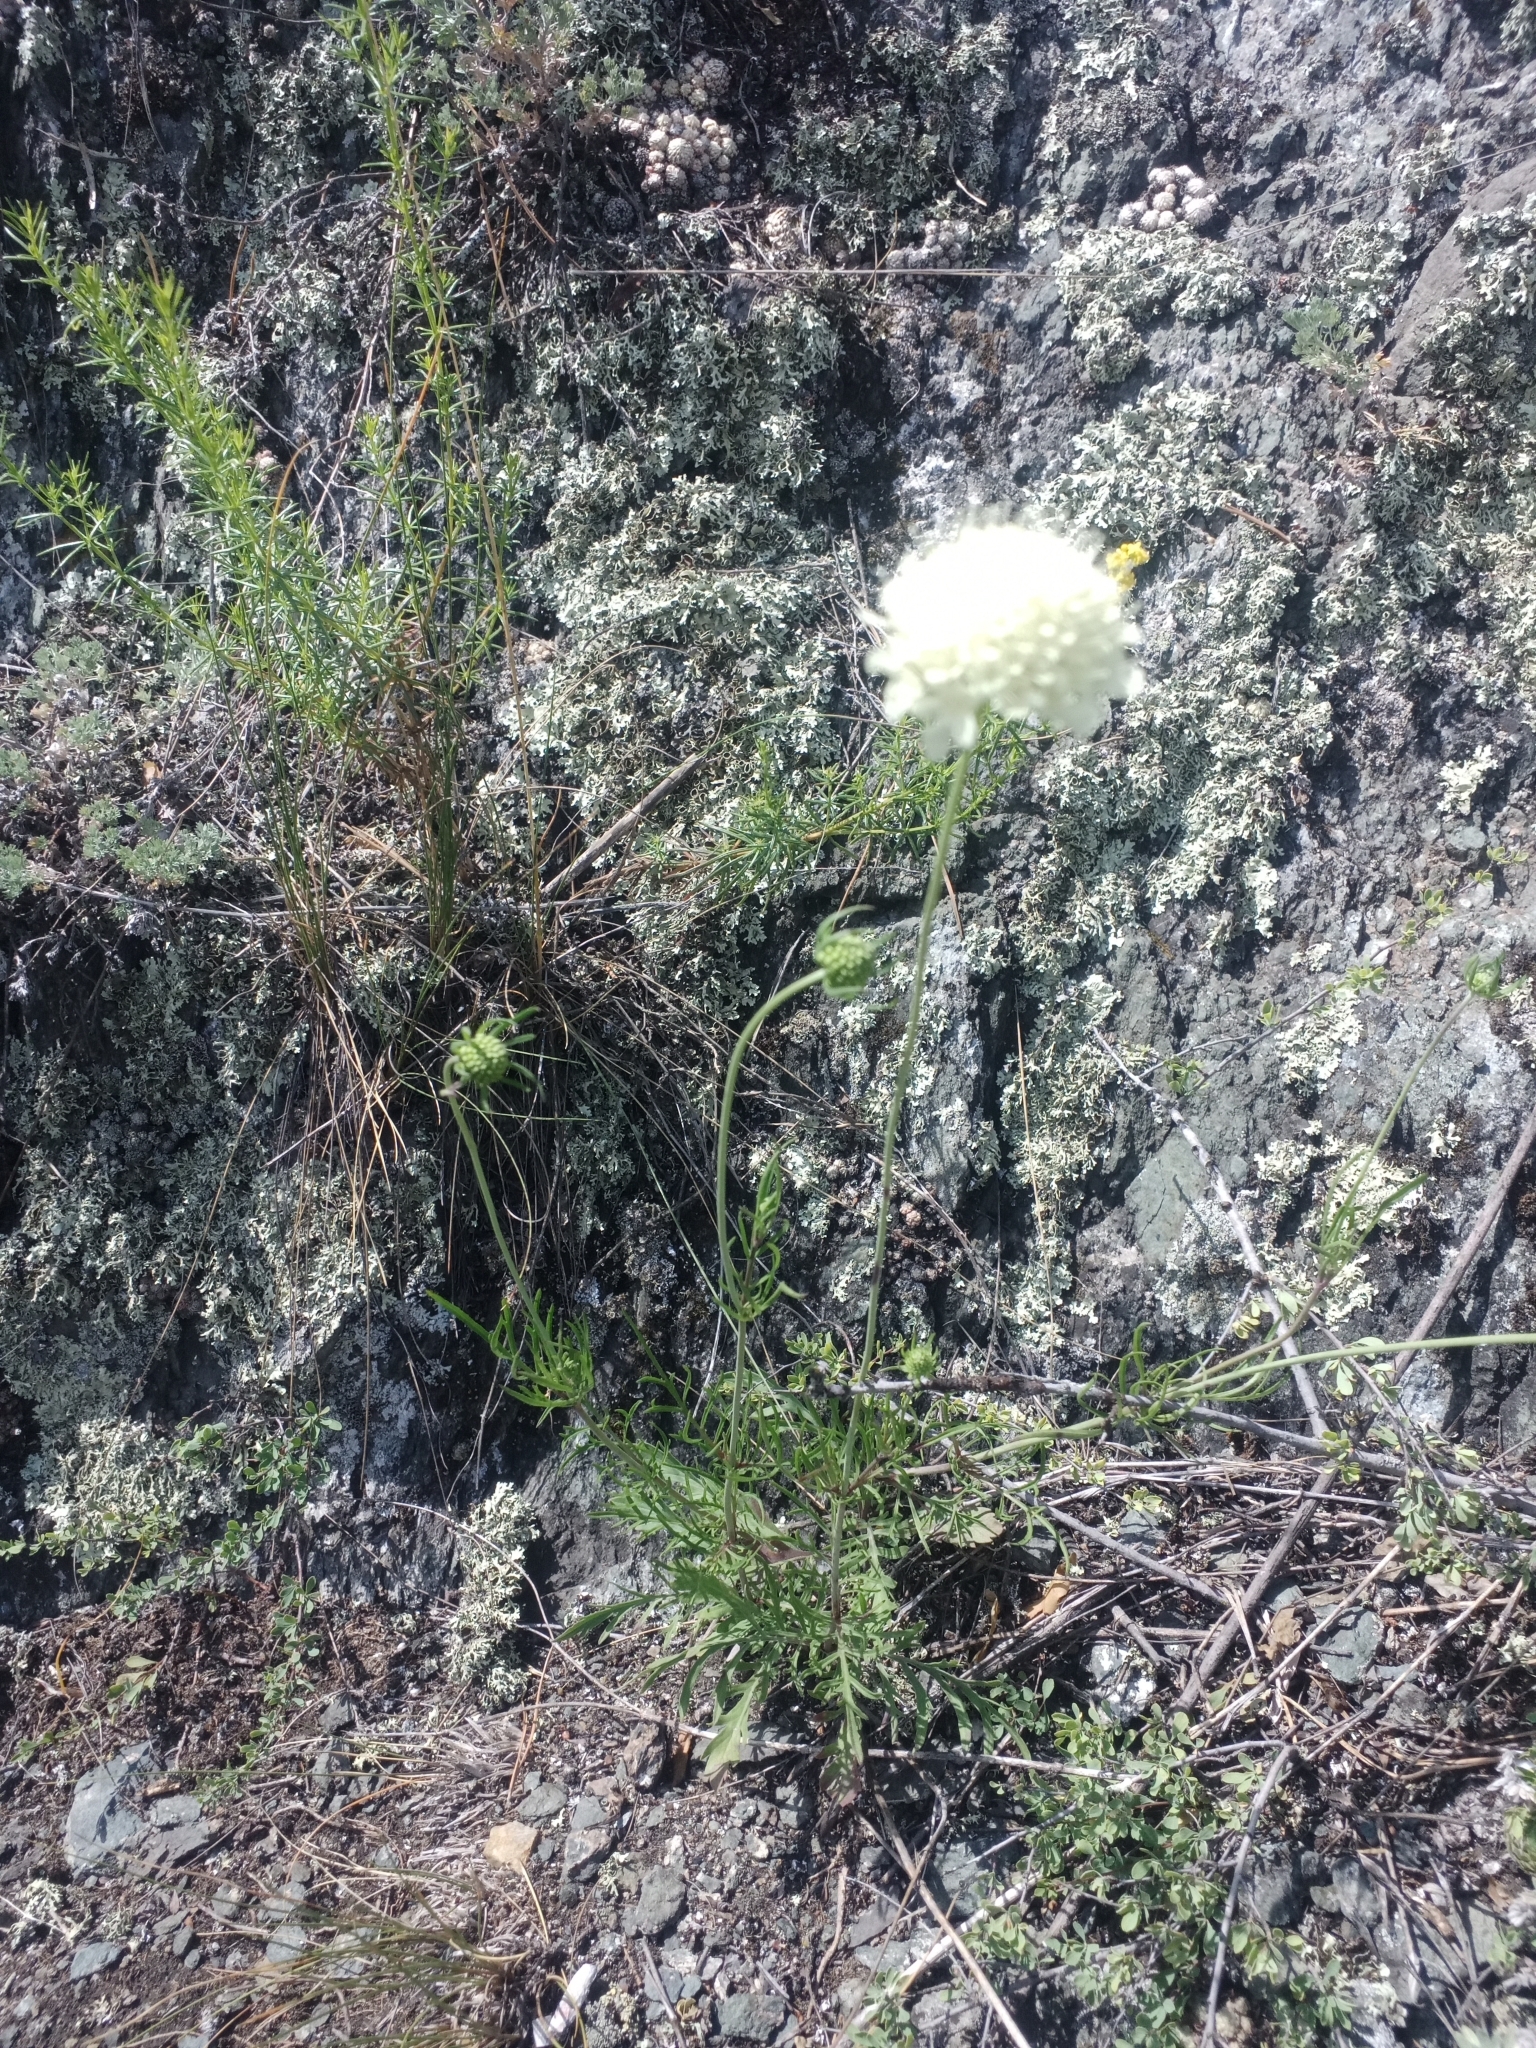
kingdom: Plantae
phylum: Tracheophyta
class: Magnoliopsida
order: Dipsacales
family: Caprifoliaceae
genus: Scabiosa
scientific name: Scabiosa ochroleuca
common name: Cream pincushions
